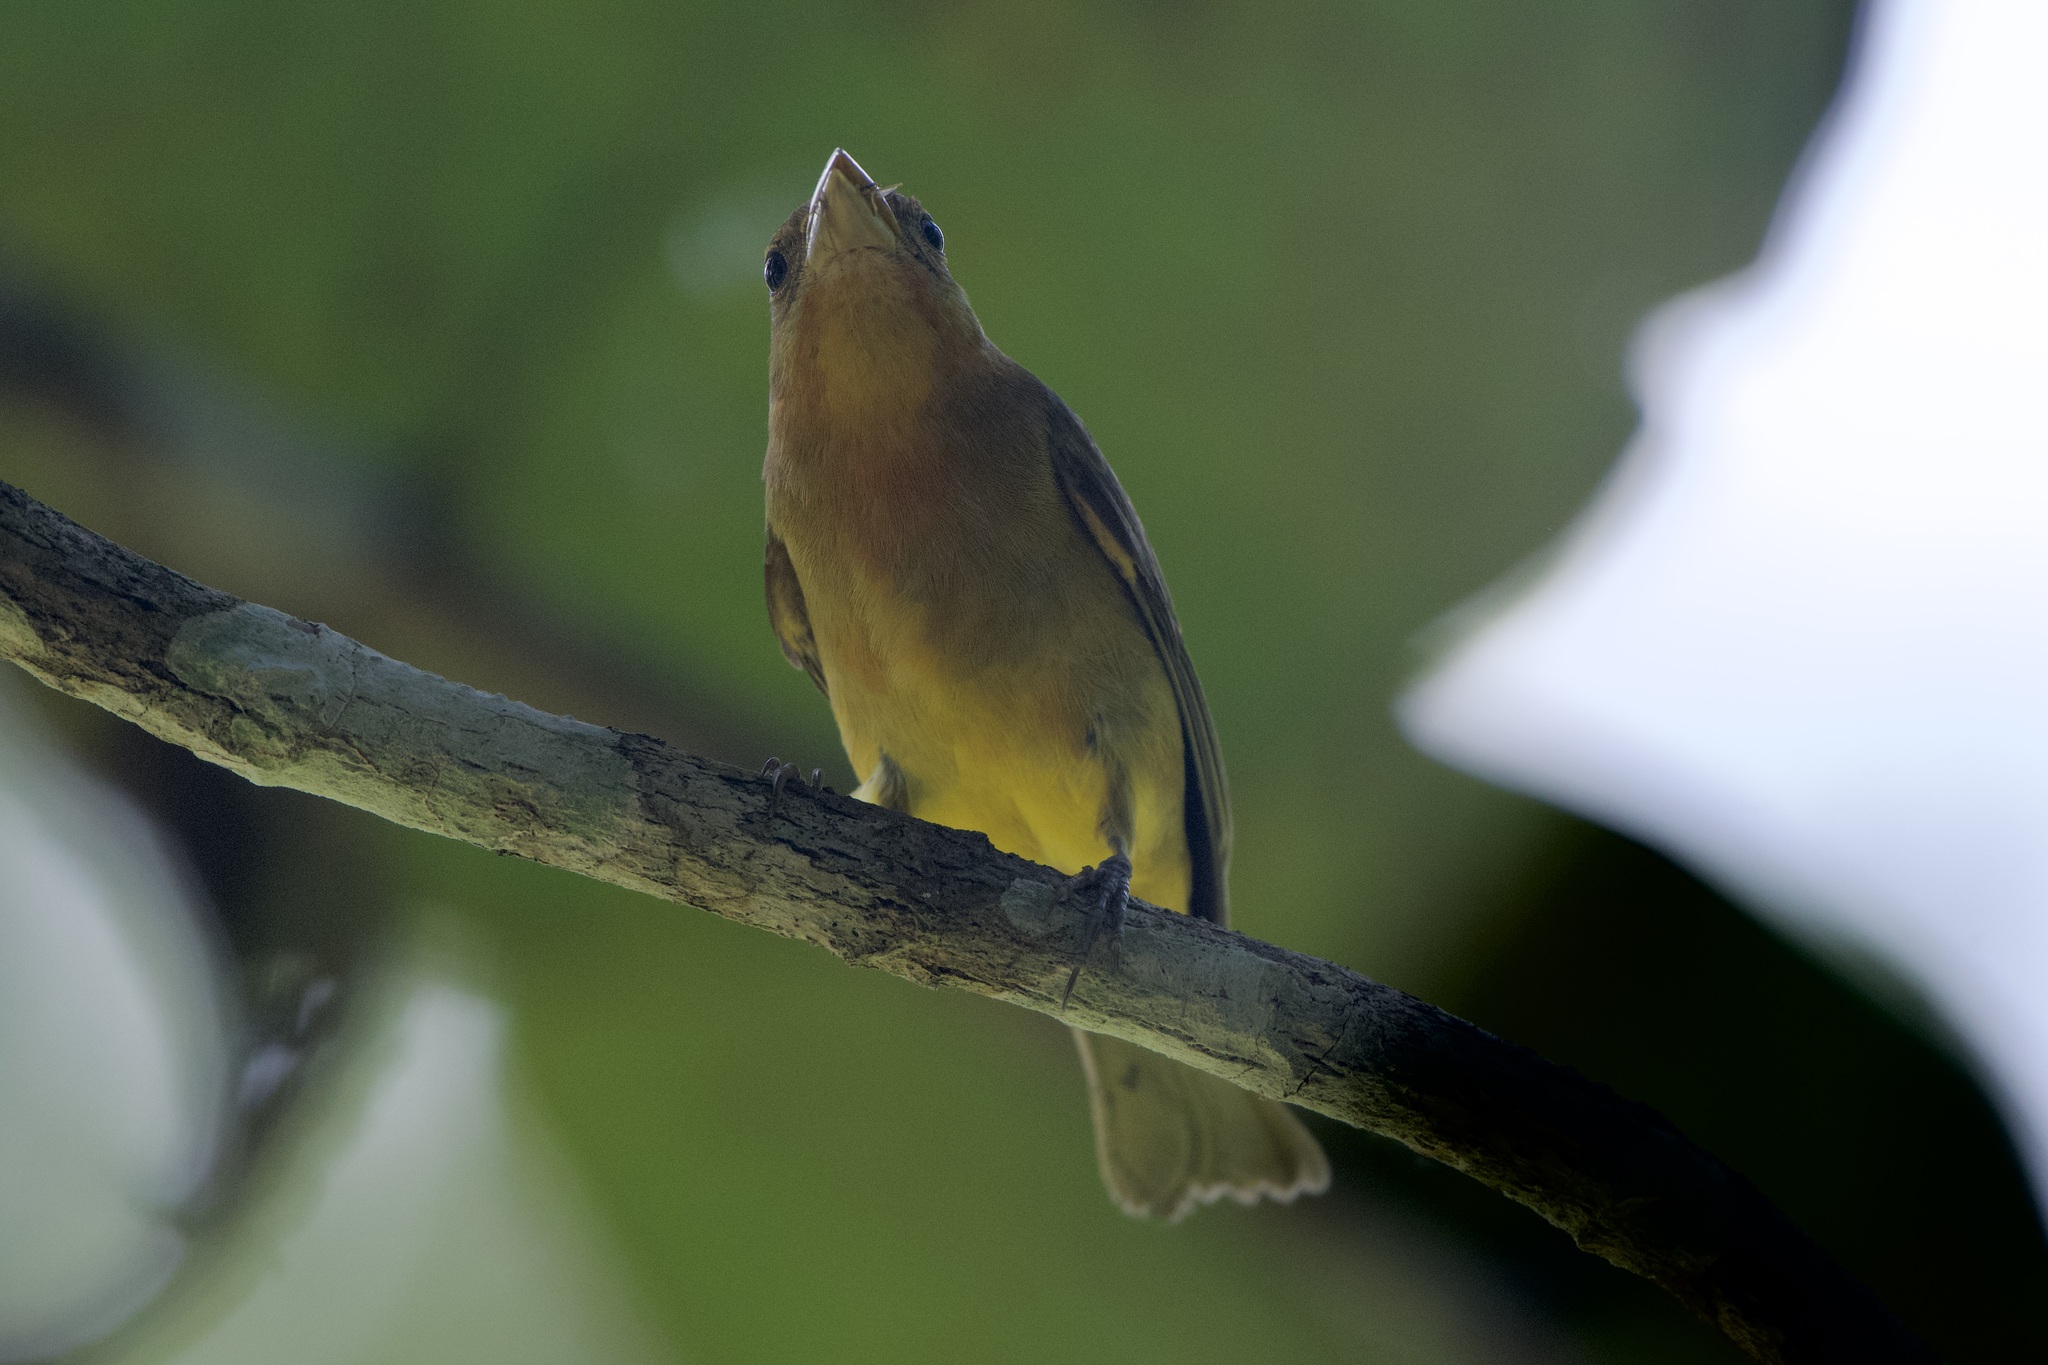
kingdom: Animalia
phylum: Chordata
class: Aves
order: Passeriformes
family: Cardinalidae
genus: Piranga
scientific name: Piranga rubra
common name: Summer tanager
